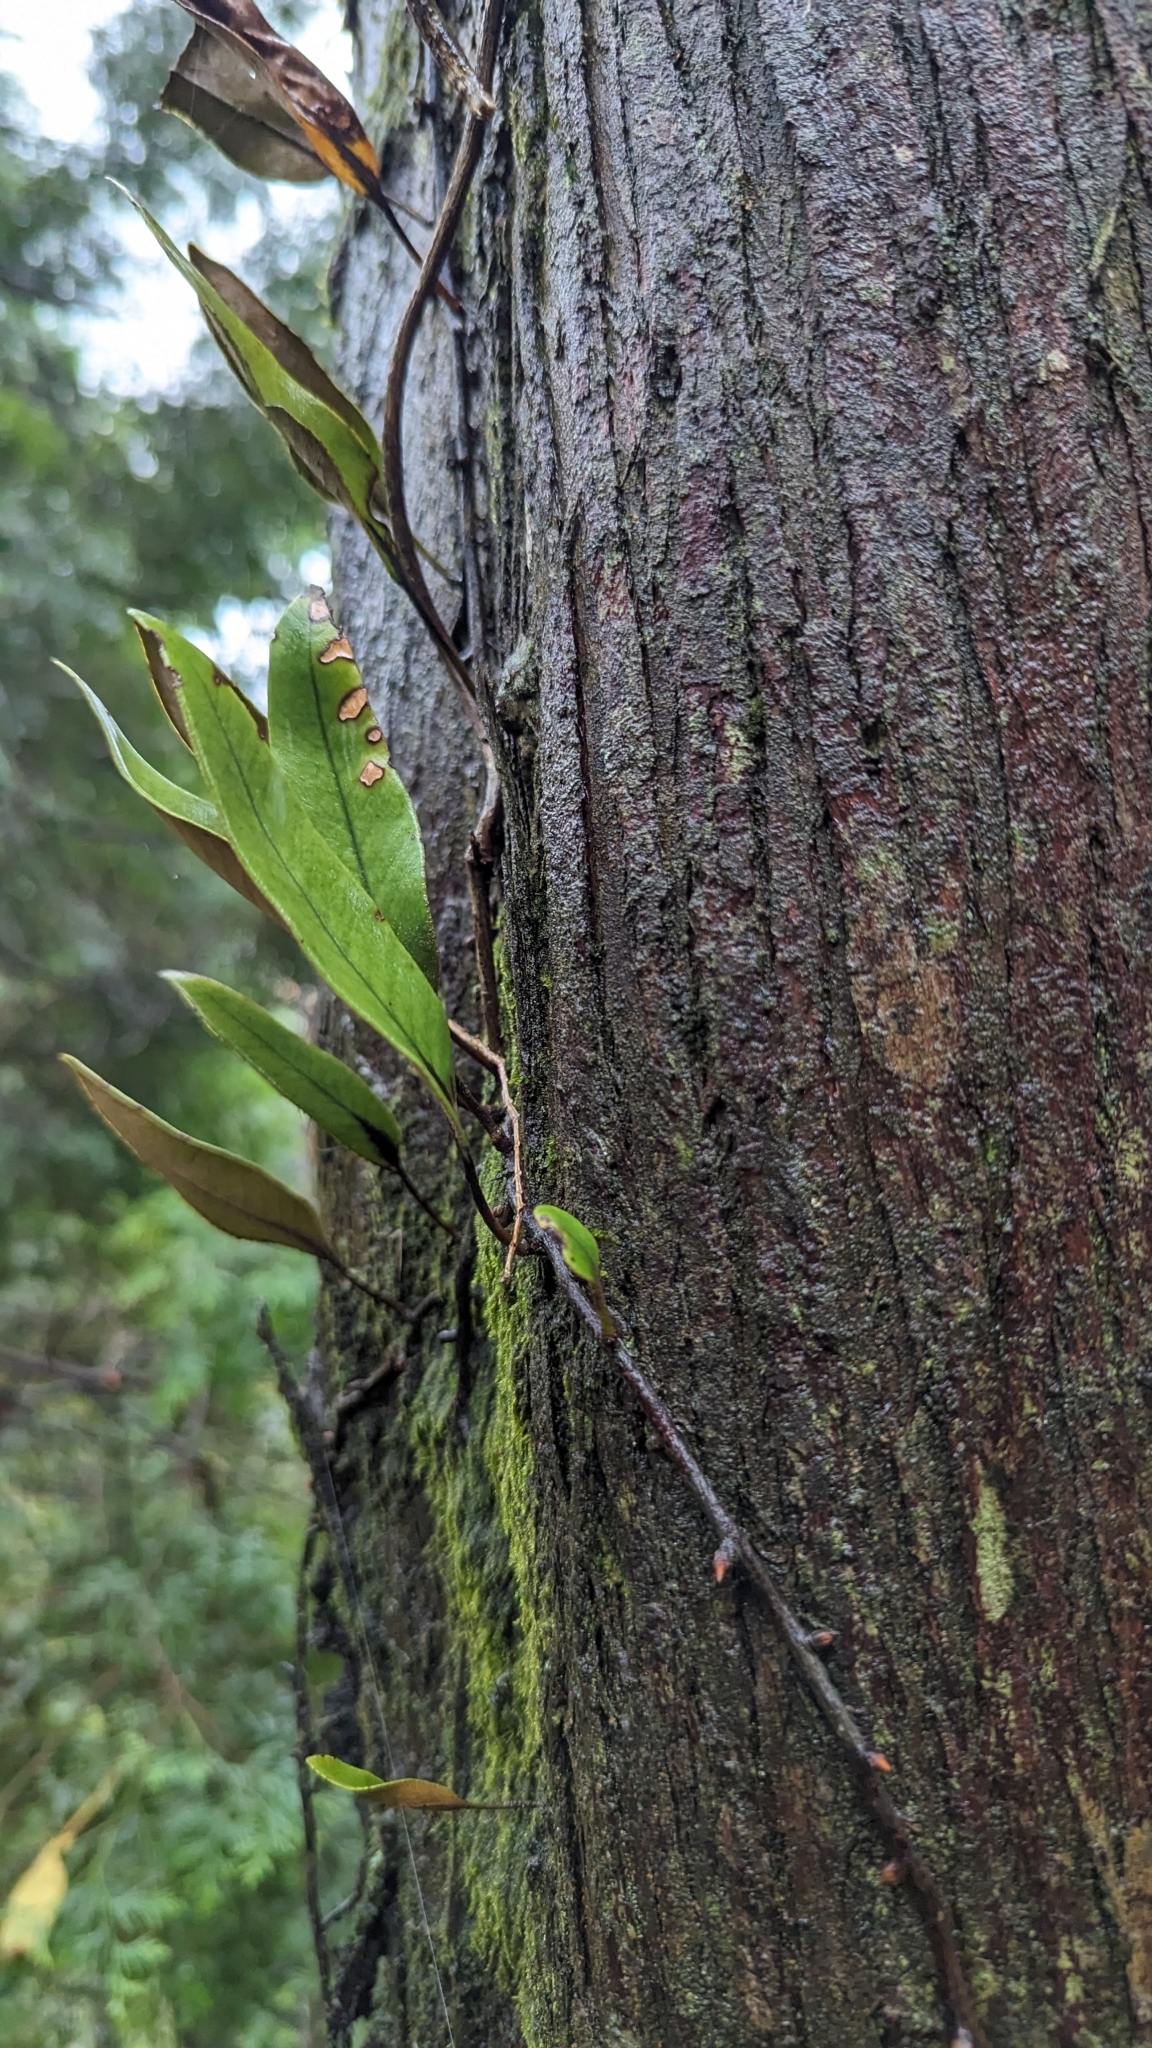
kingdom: Plantae
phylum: Tracheophyta
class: Polypodiopsida
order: Polypodiales
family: Polypodiaceae
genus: Pyrrosia
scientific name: Pyrrosia lingua
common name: Felt fern
